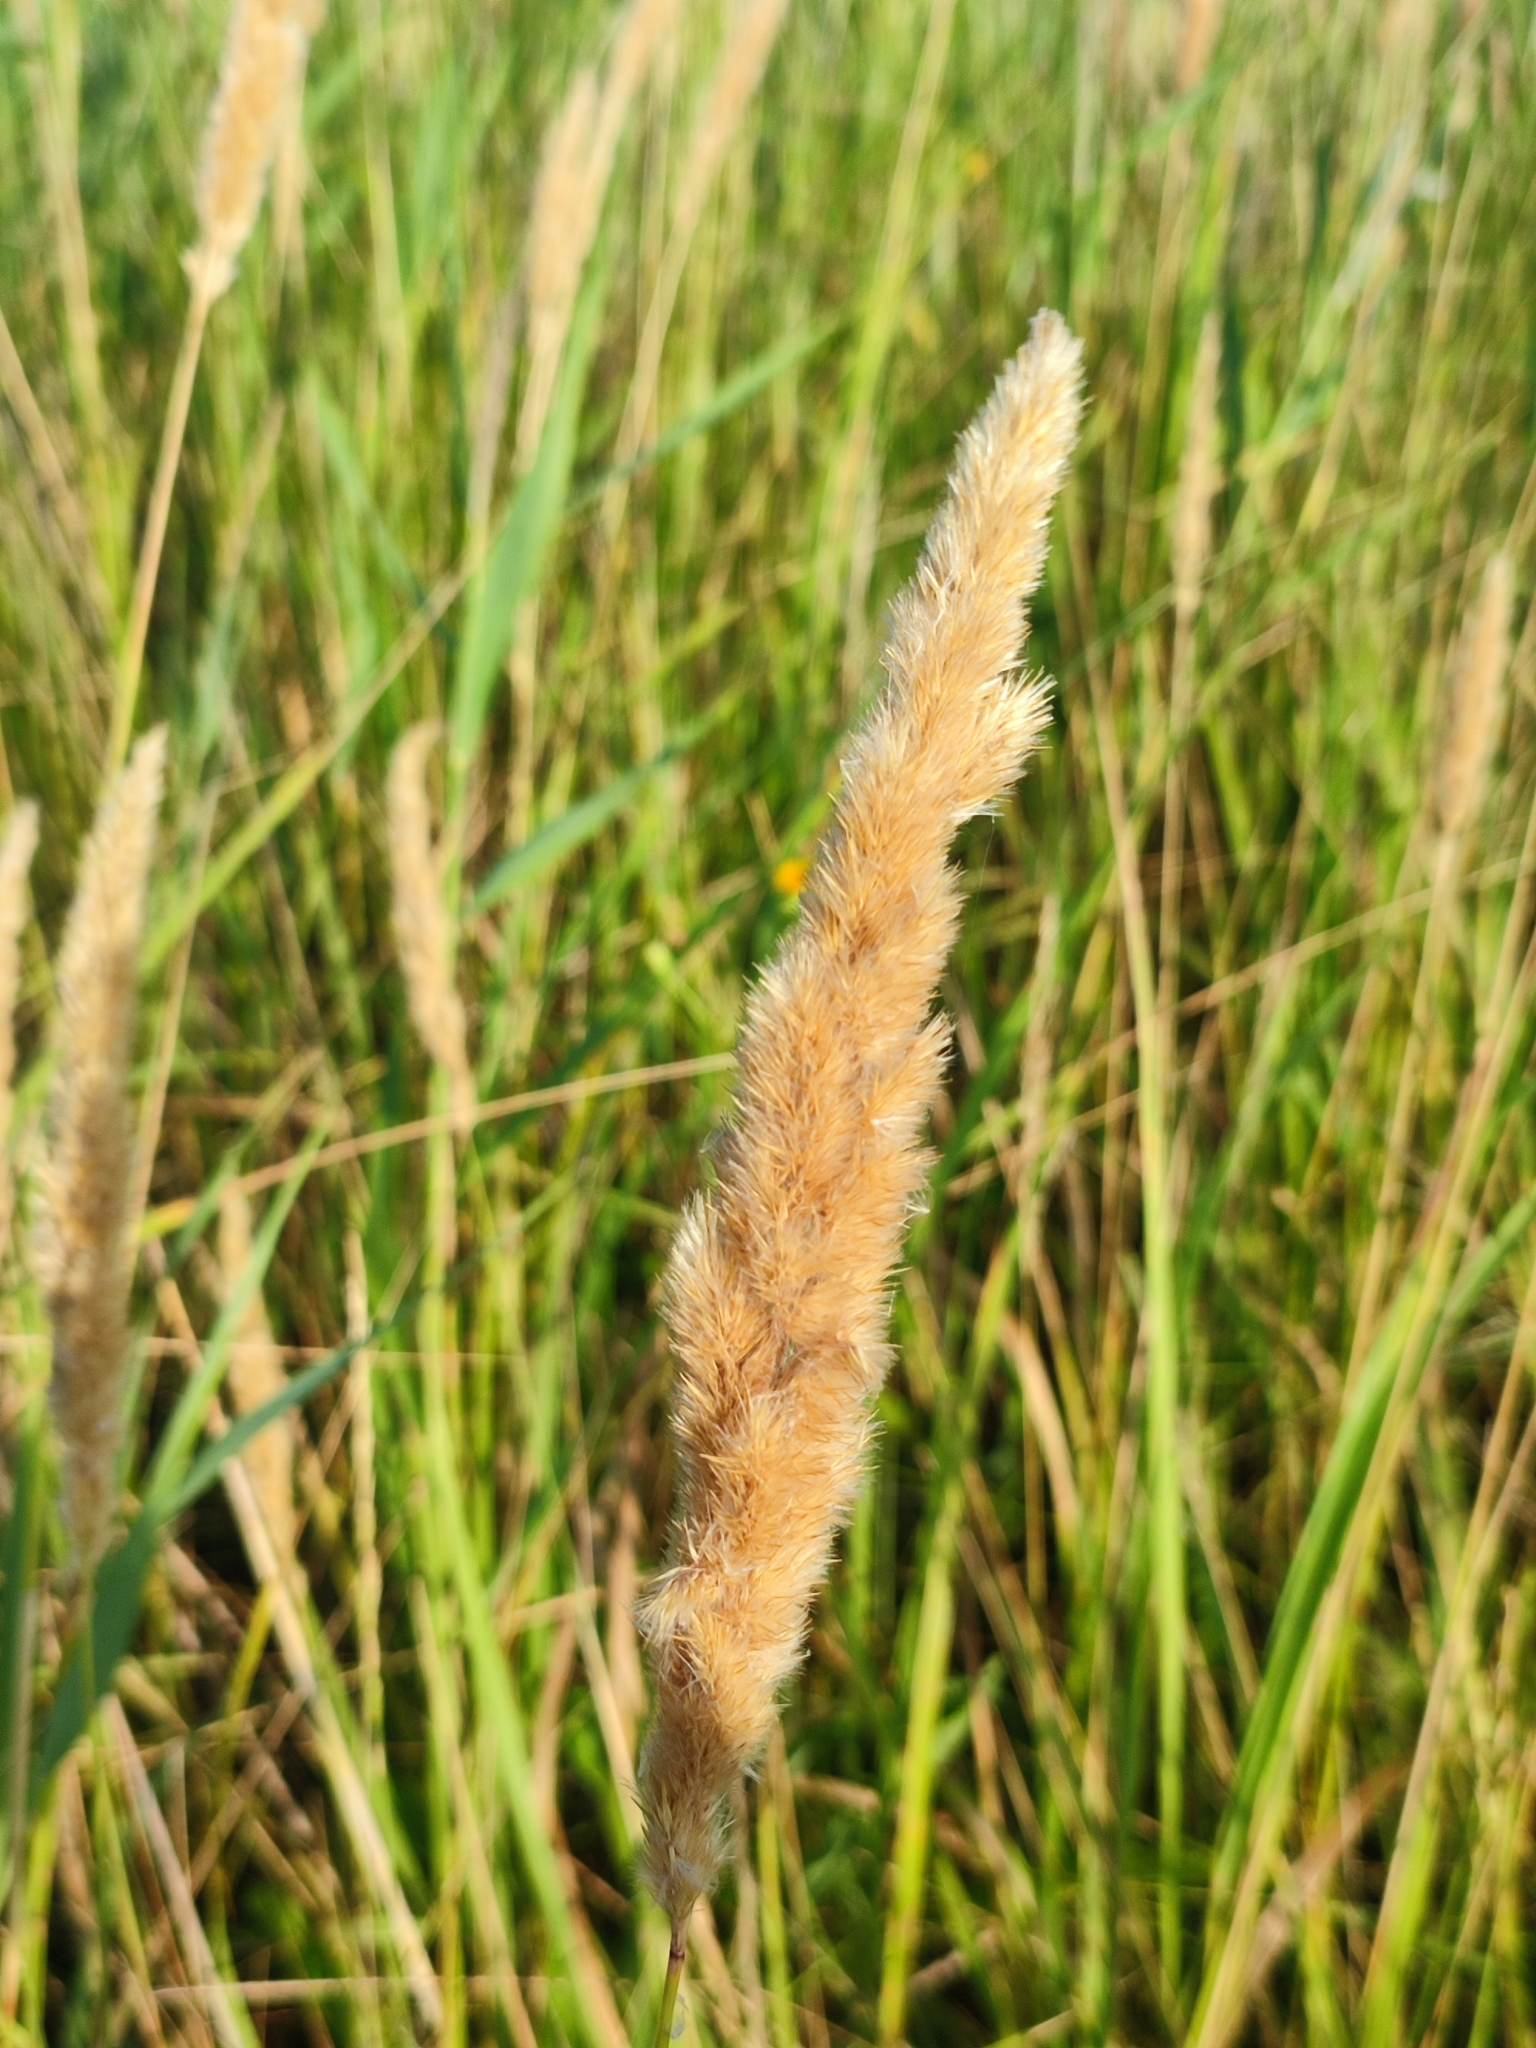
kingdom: Plantae
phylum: Tracheophyta
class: Liliopsida
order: Poales
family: Poaceae
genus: Calamagrostis
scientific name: Calamagrostis epigejos
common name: Wood small-reed
